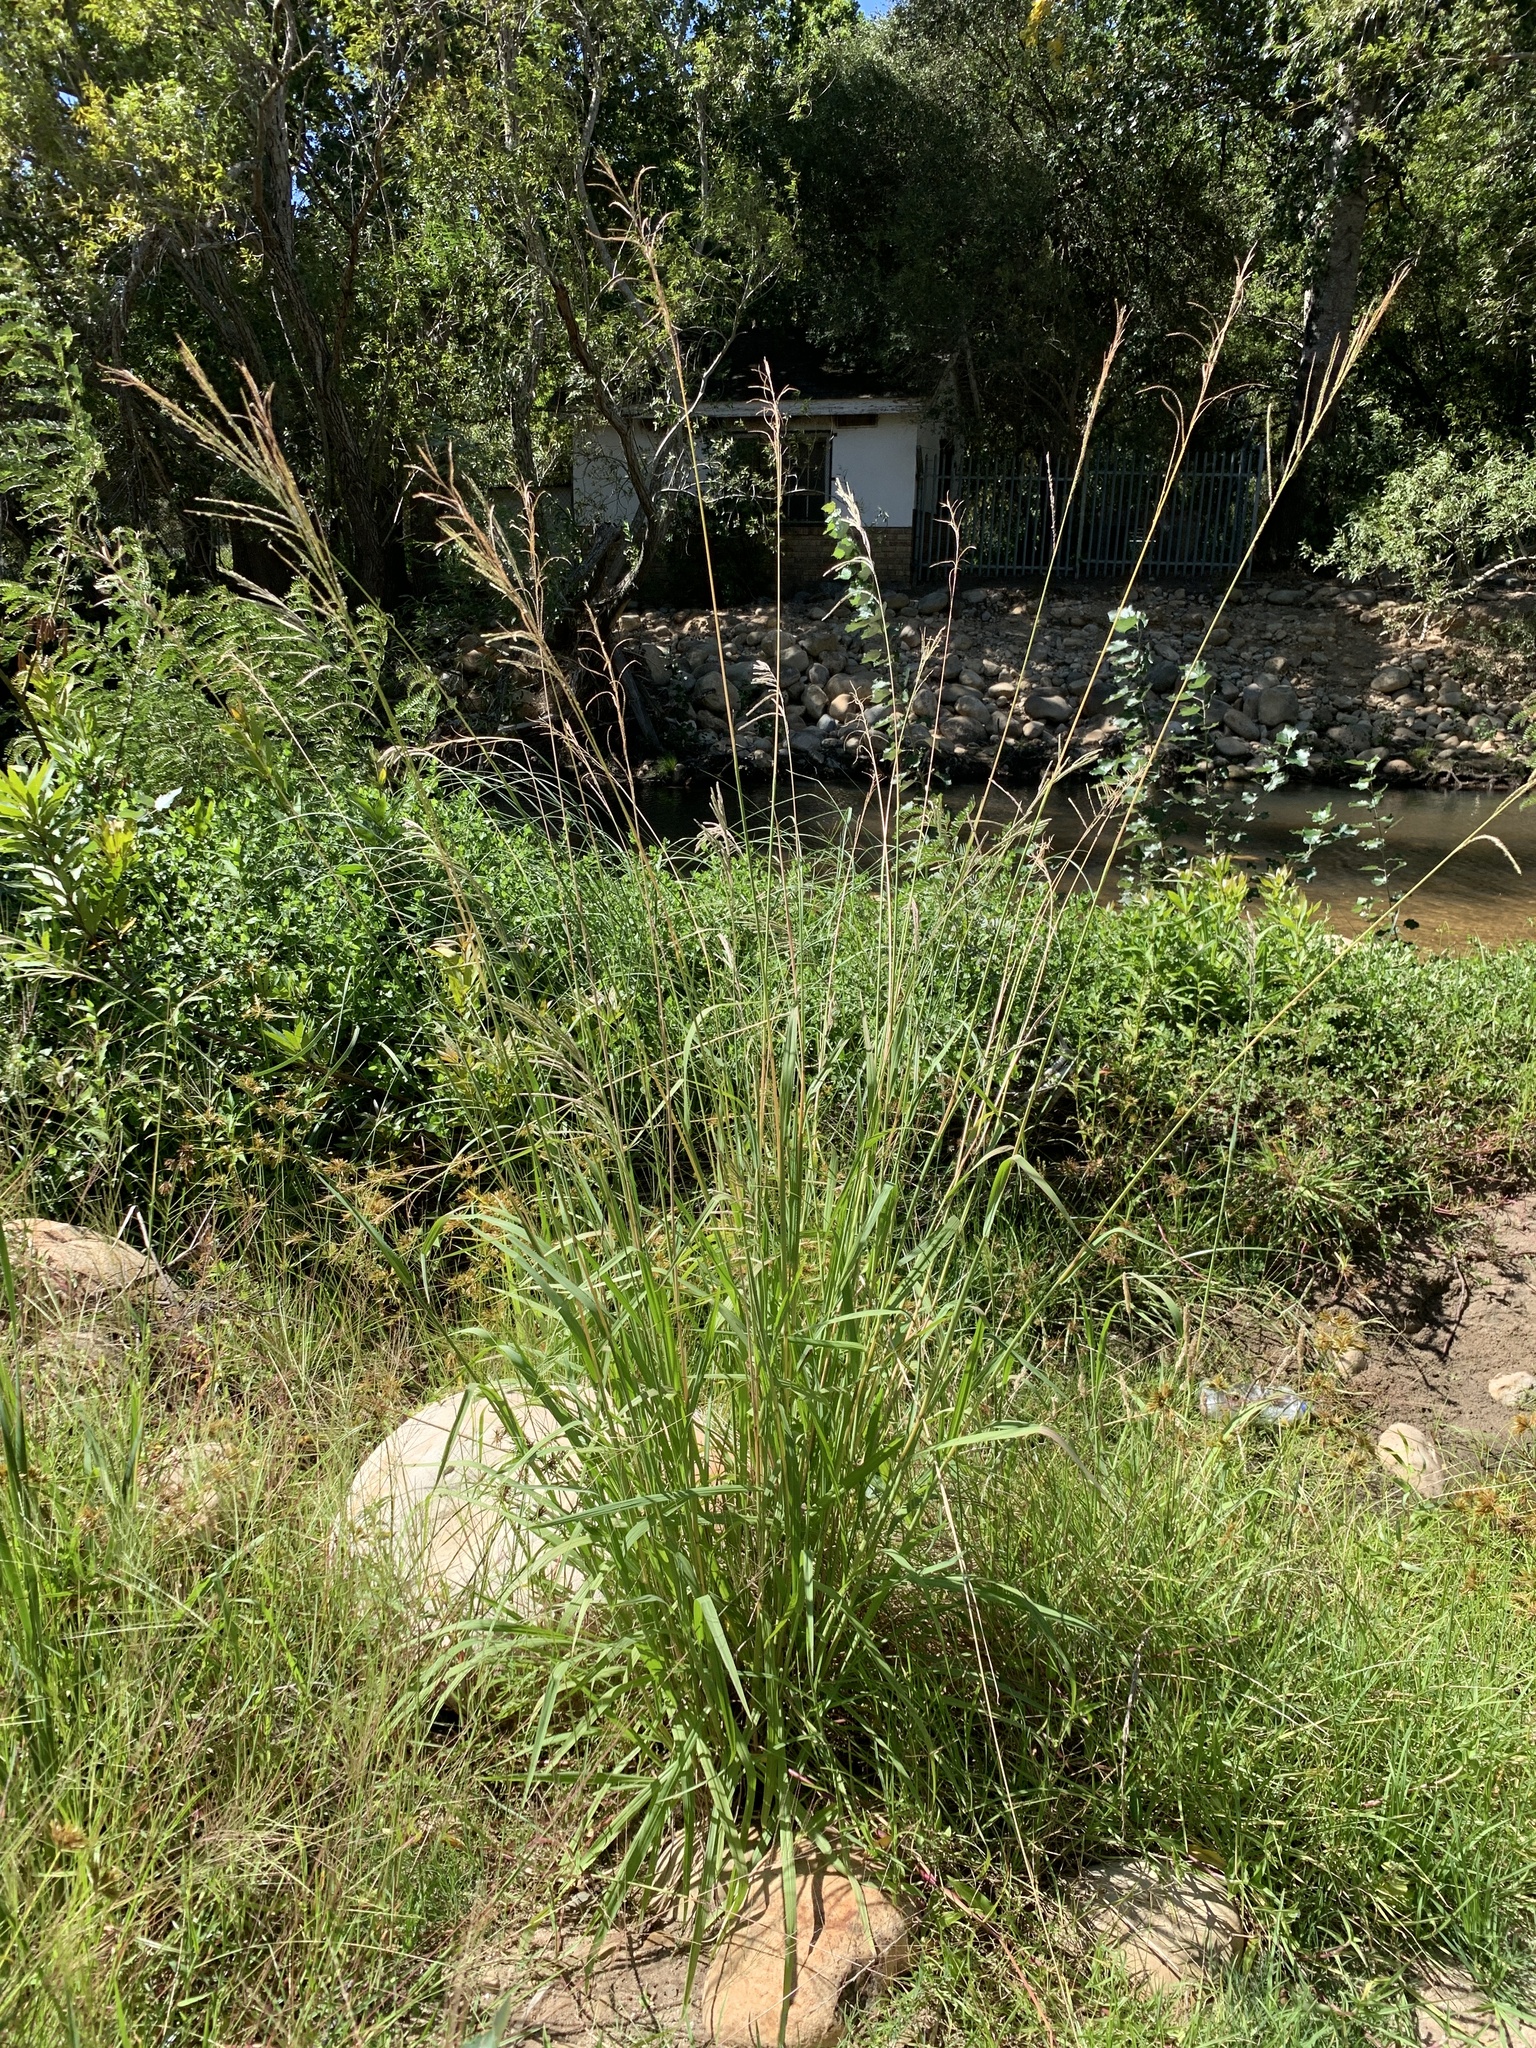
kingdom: Plantae
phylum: Tracheophyta
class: Liliopsida
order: Poales
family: Poaceae
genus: Paspalum
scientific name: Paspalum urvillei
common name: Vasey's grass
